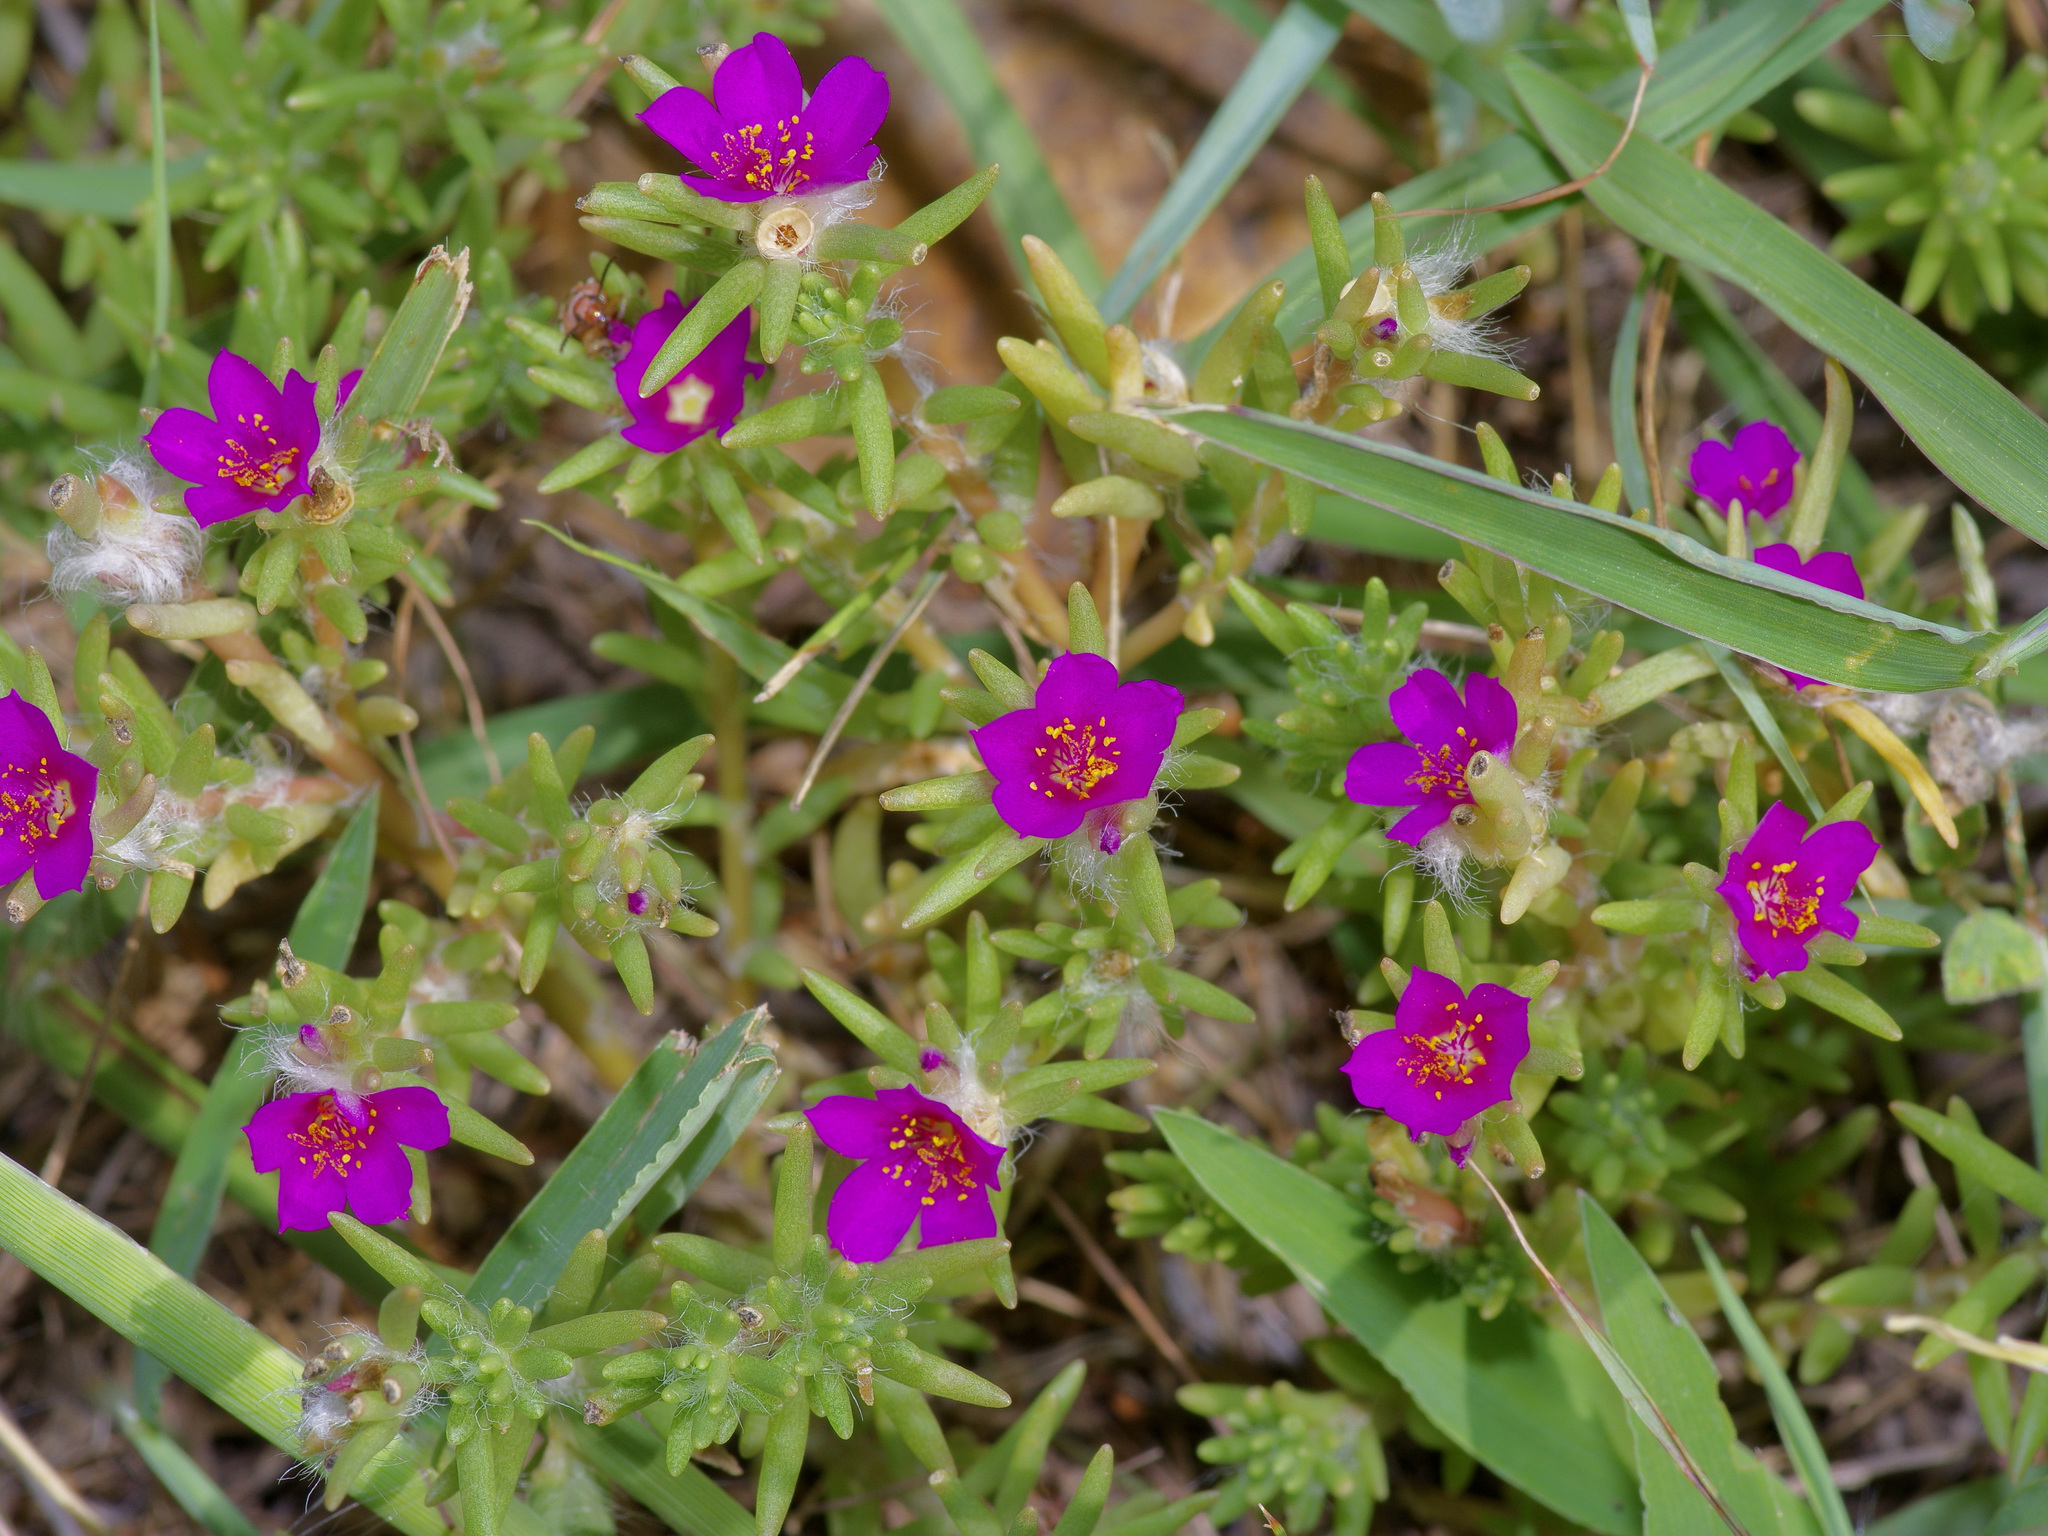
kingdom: Plantae
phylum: Tracheophyta
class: Magnoliopsida
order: Caryophyllales
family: Portulacaceae
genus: Portulaca
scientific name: Portulaca pilosa
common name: Kiss me quick
